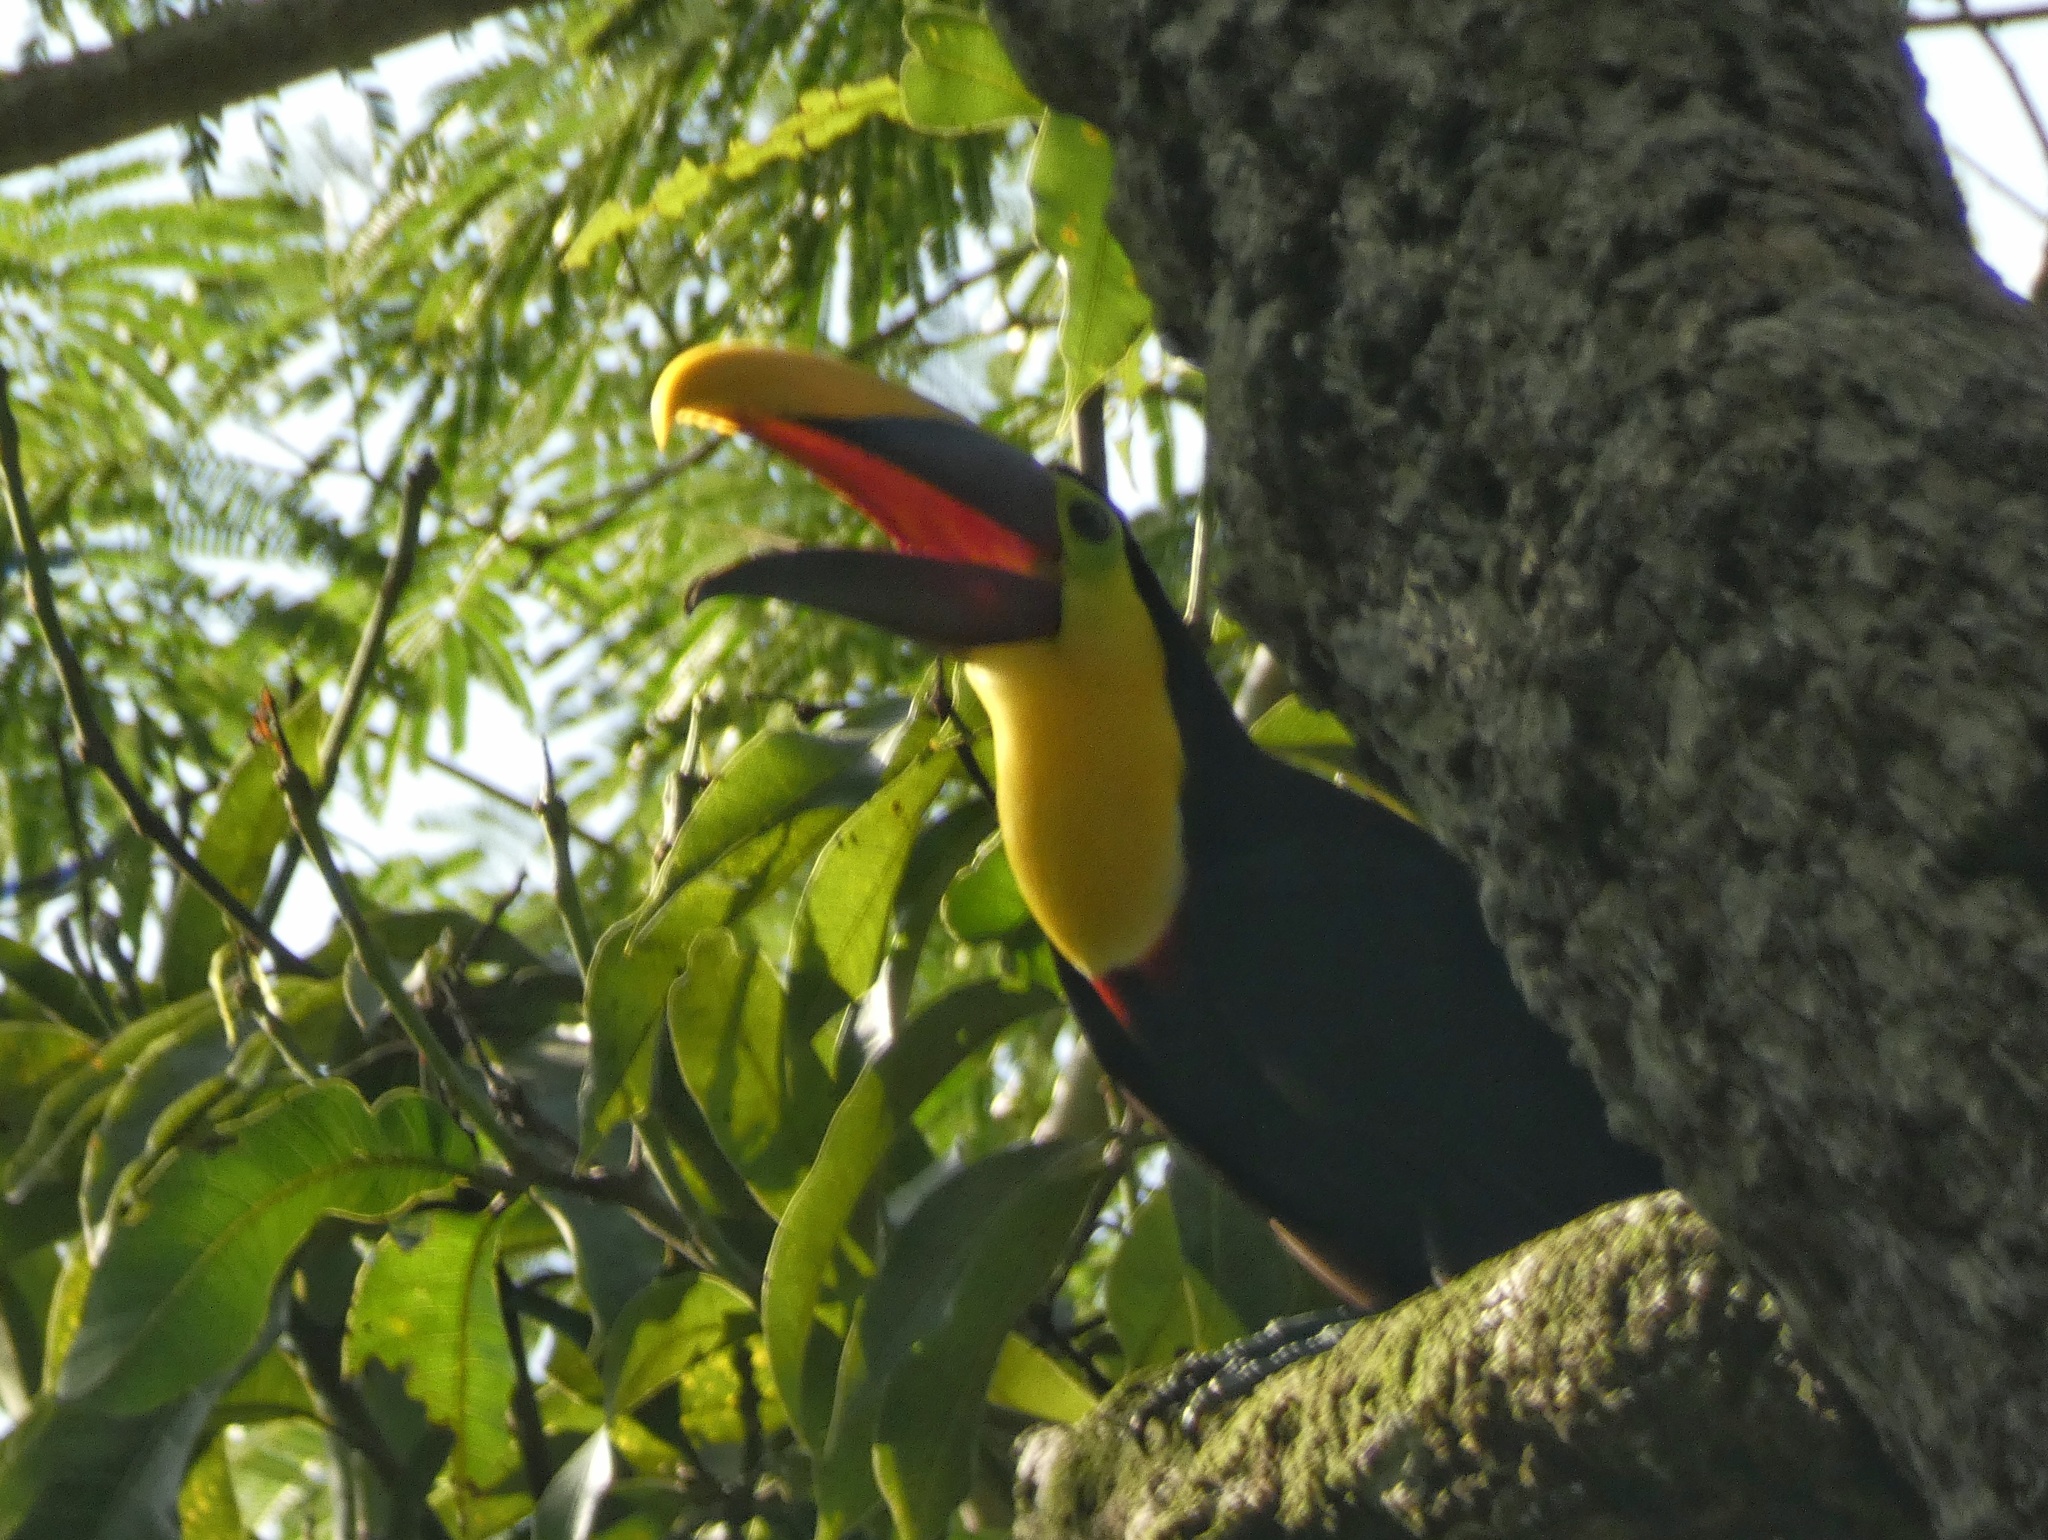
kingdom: Animalia
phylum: Chordata
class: Aves
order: Piciformes
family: Ramphastidae
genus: Ramphastos
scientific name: Ramphastos ambiguus
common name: Yellow-throated toucan
